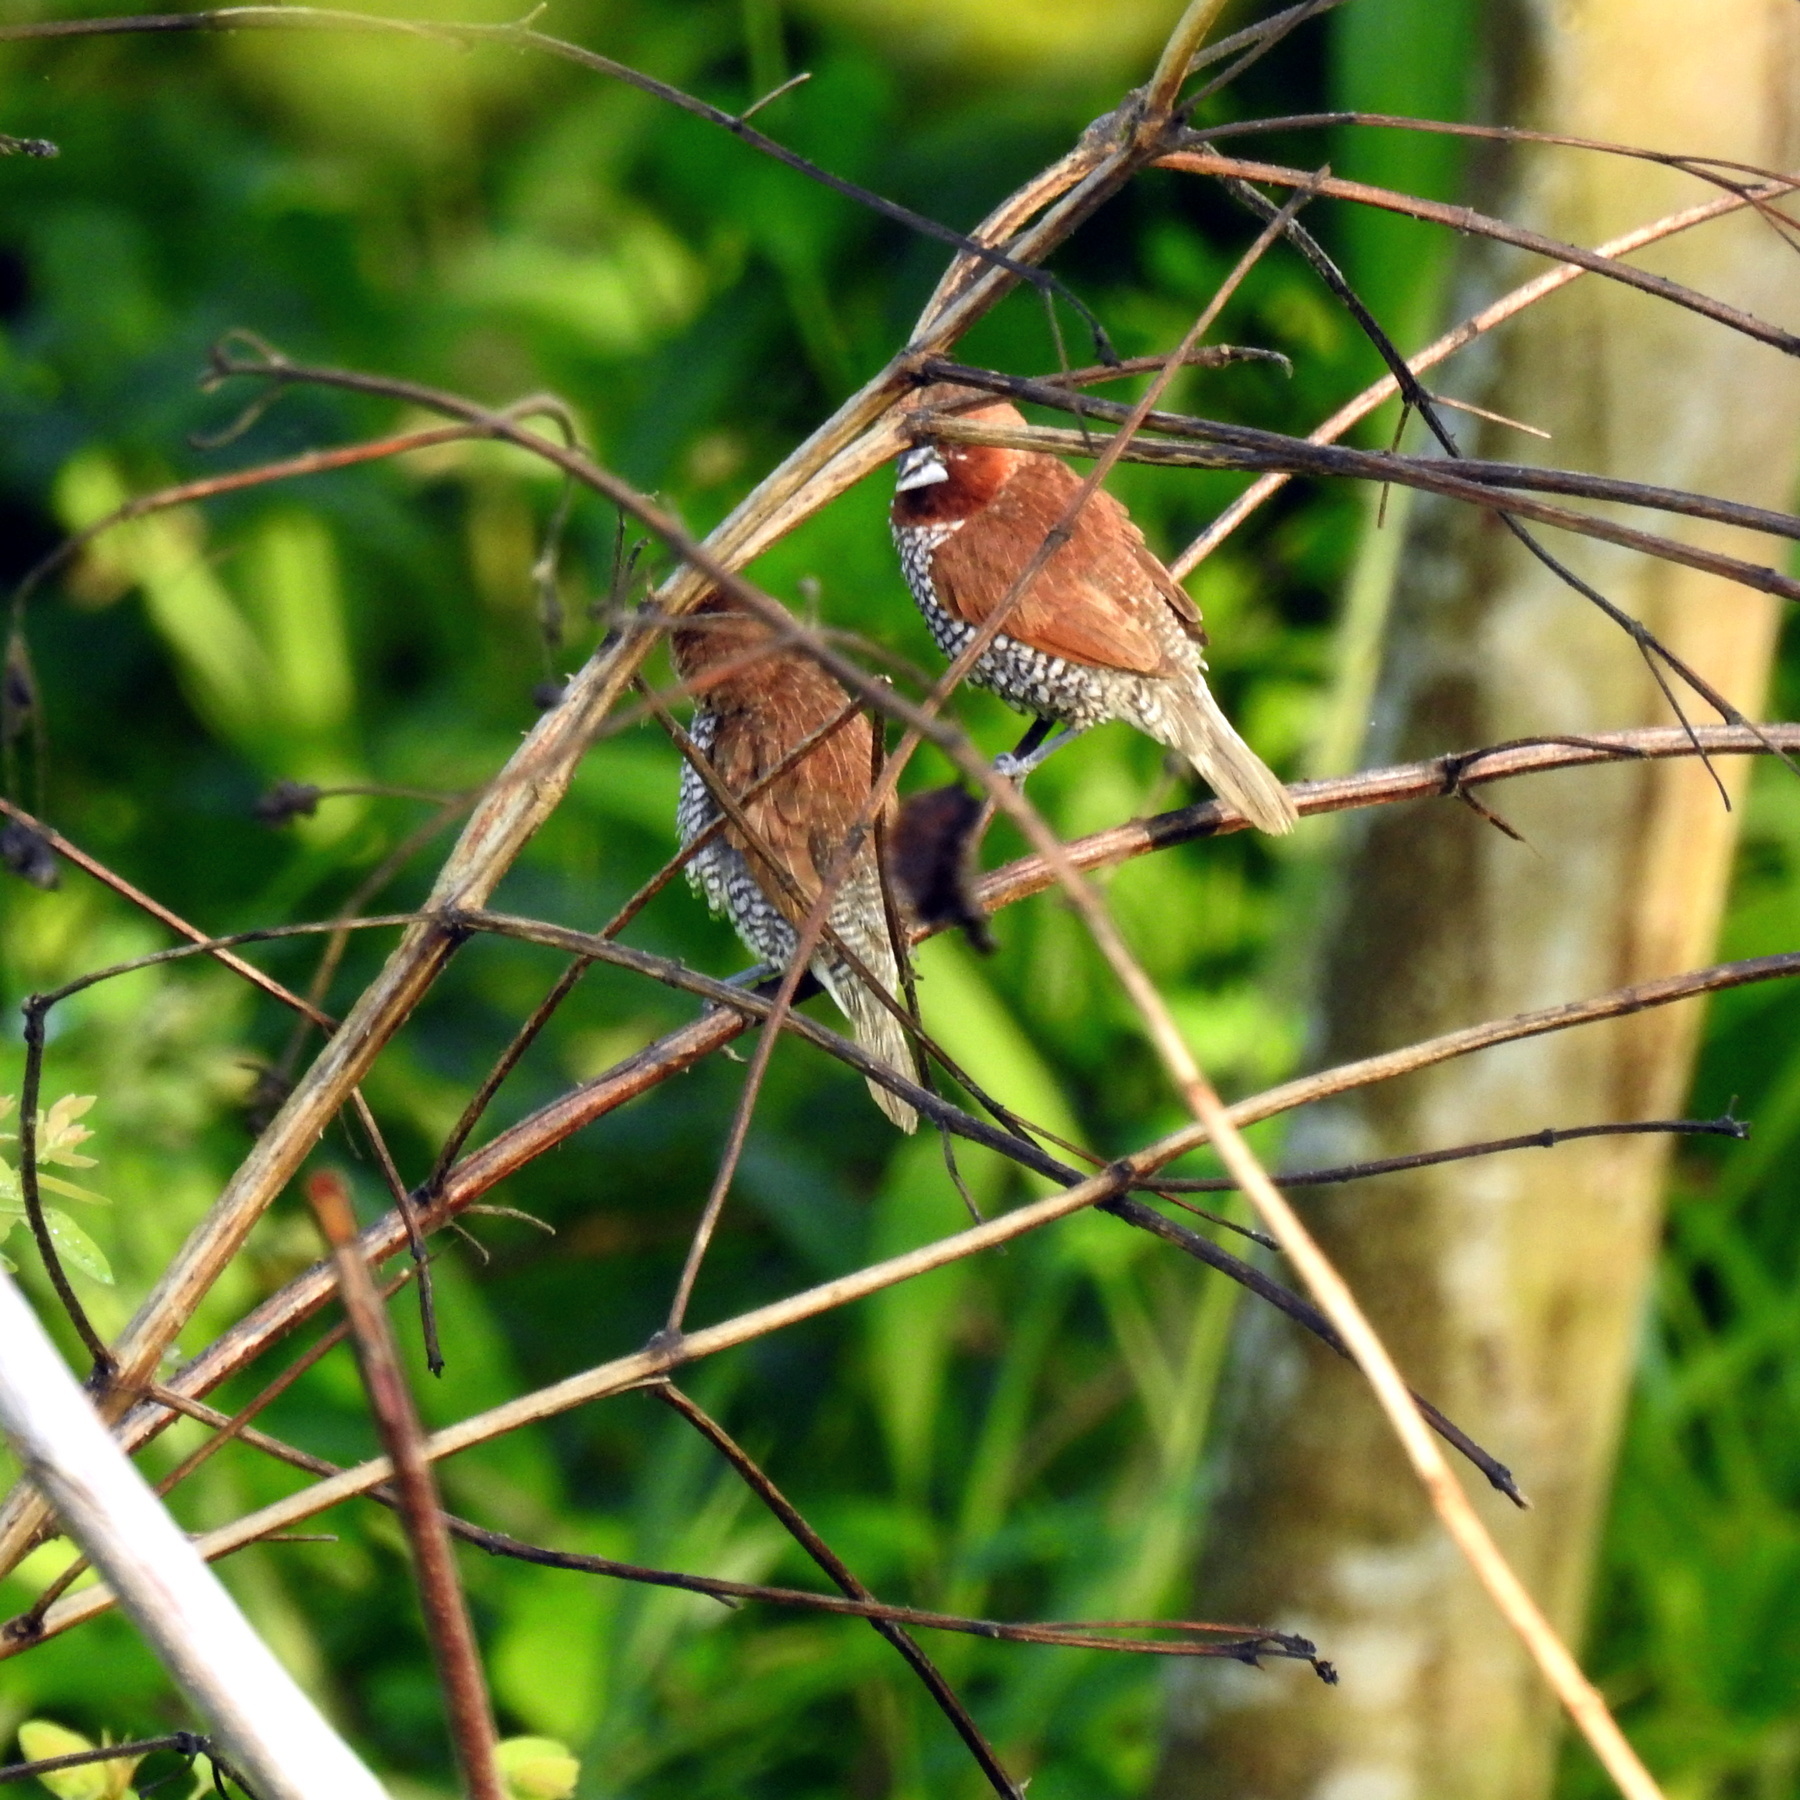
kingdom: Animalia
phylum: Chordata
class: Aves
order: Passeriformes
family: Estrildidae
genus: Lonchura
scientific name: Lonchura punctulata
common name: Scaly-breasted munia
